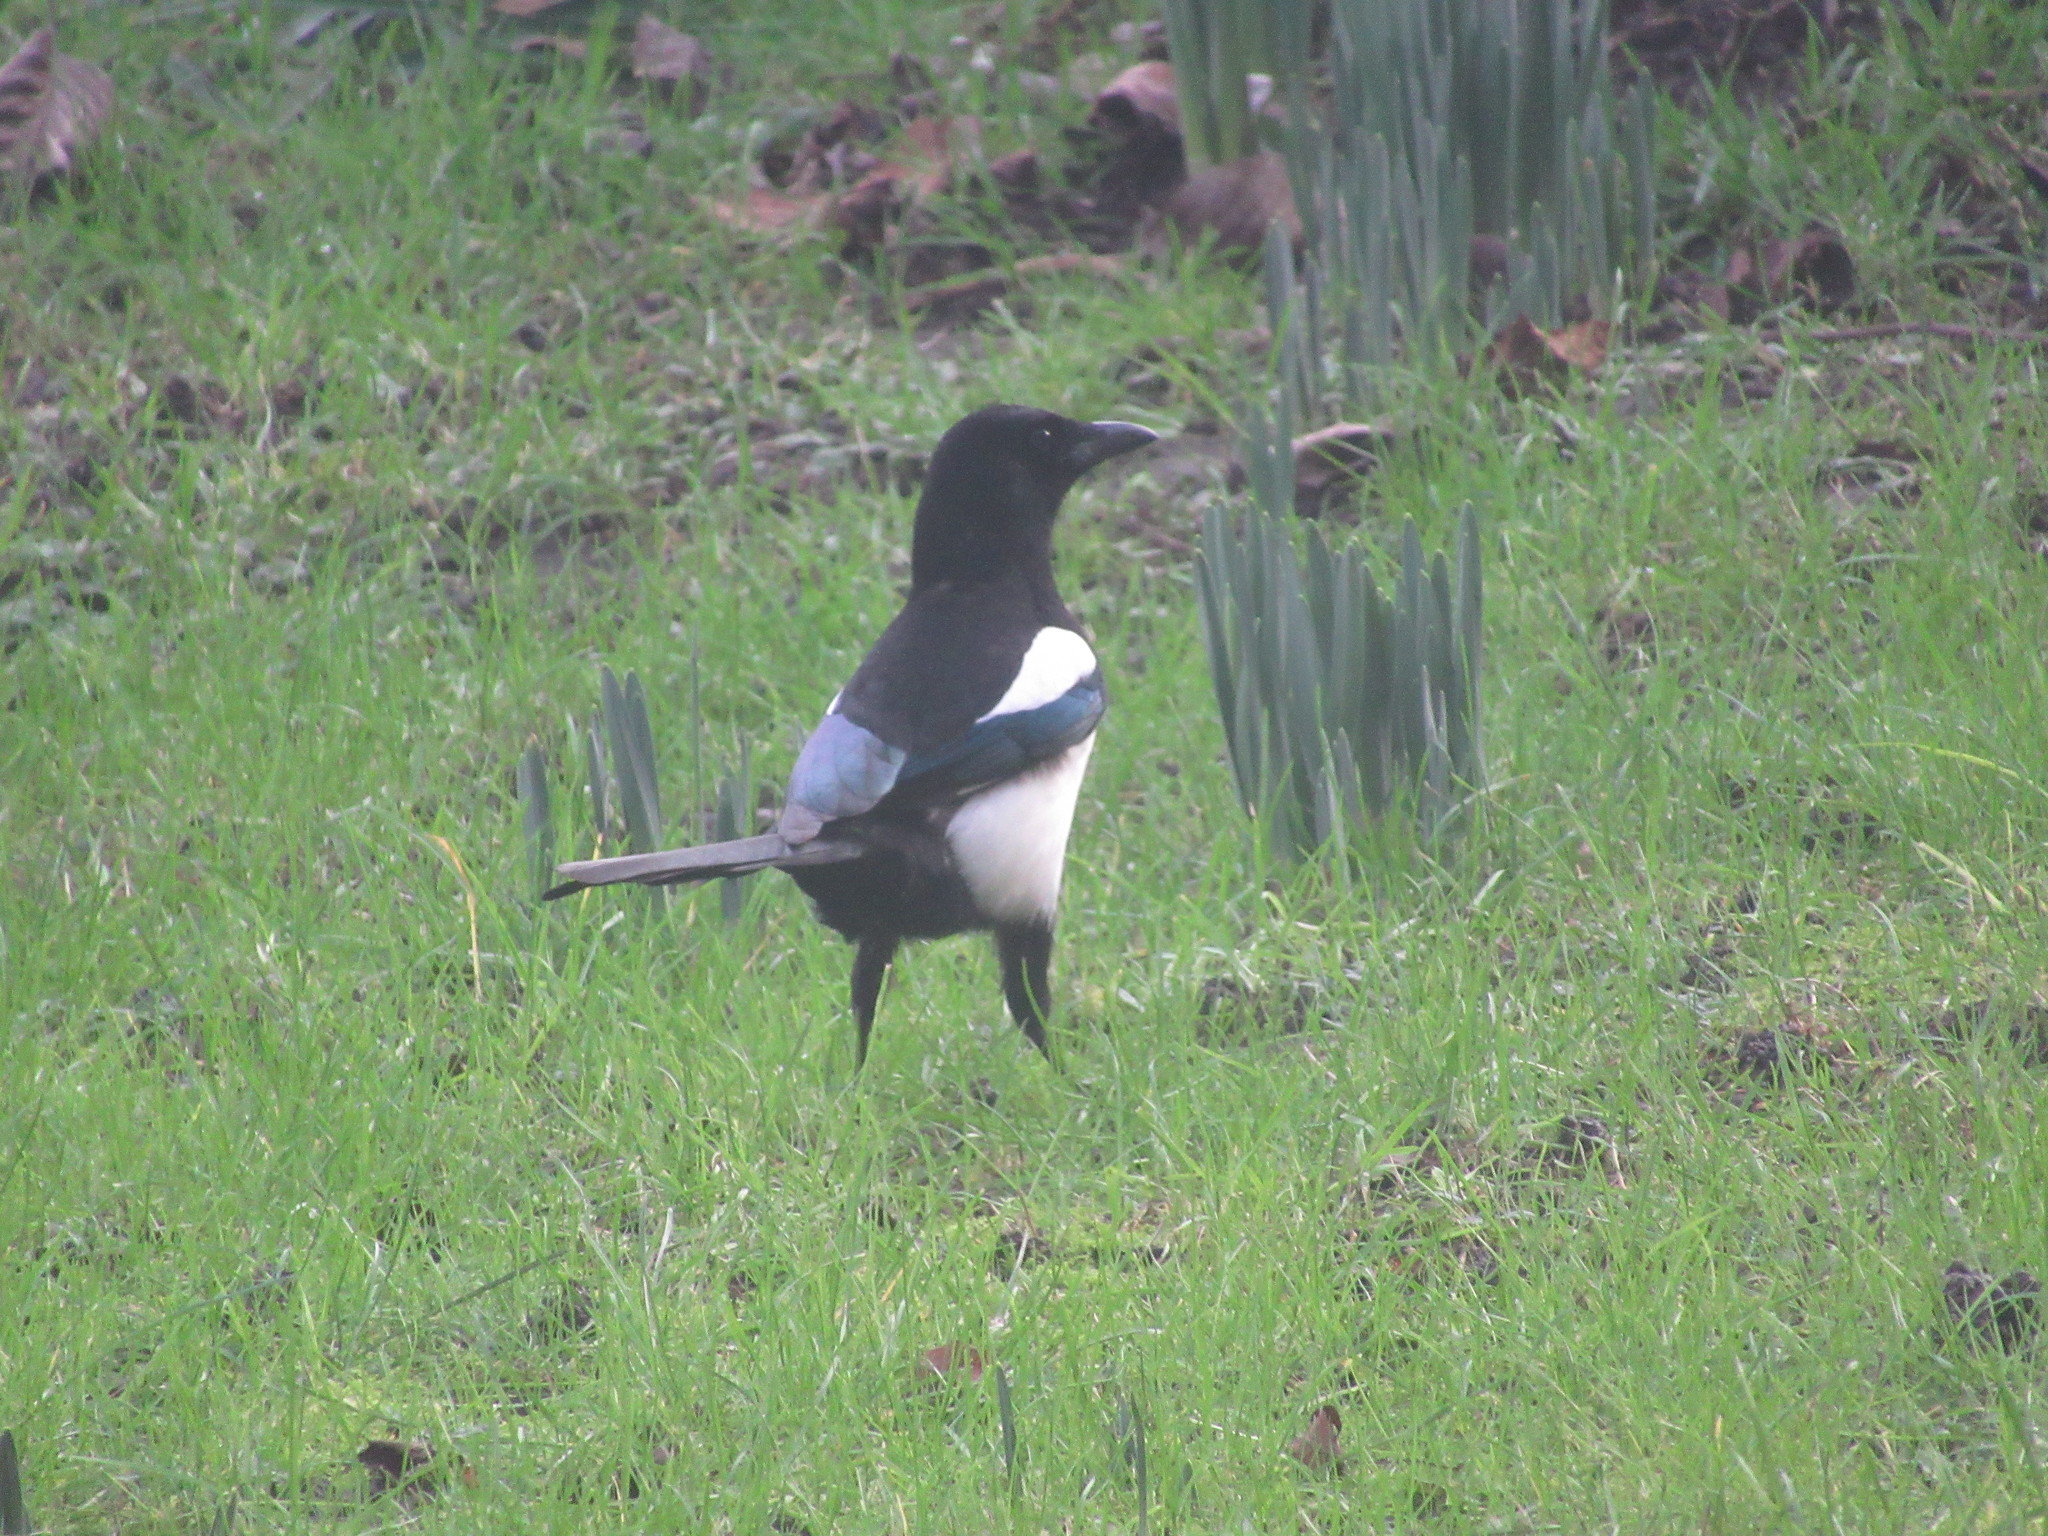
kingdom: Animalia
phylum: Chordata
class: Aves
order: Passeriformes
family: Corvidae
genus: Pica
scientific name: Pica pica
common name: Eurasian magpie
